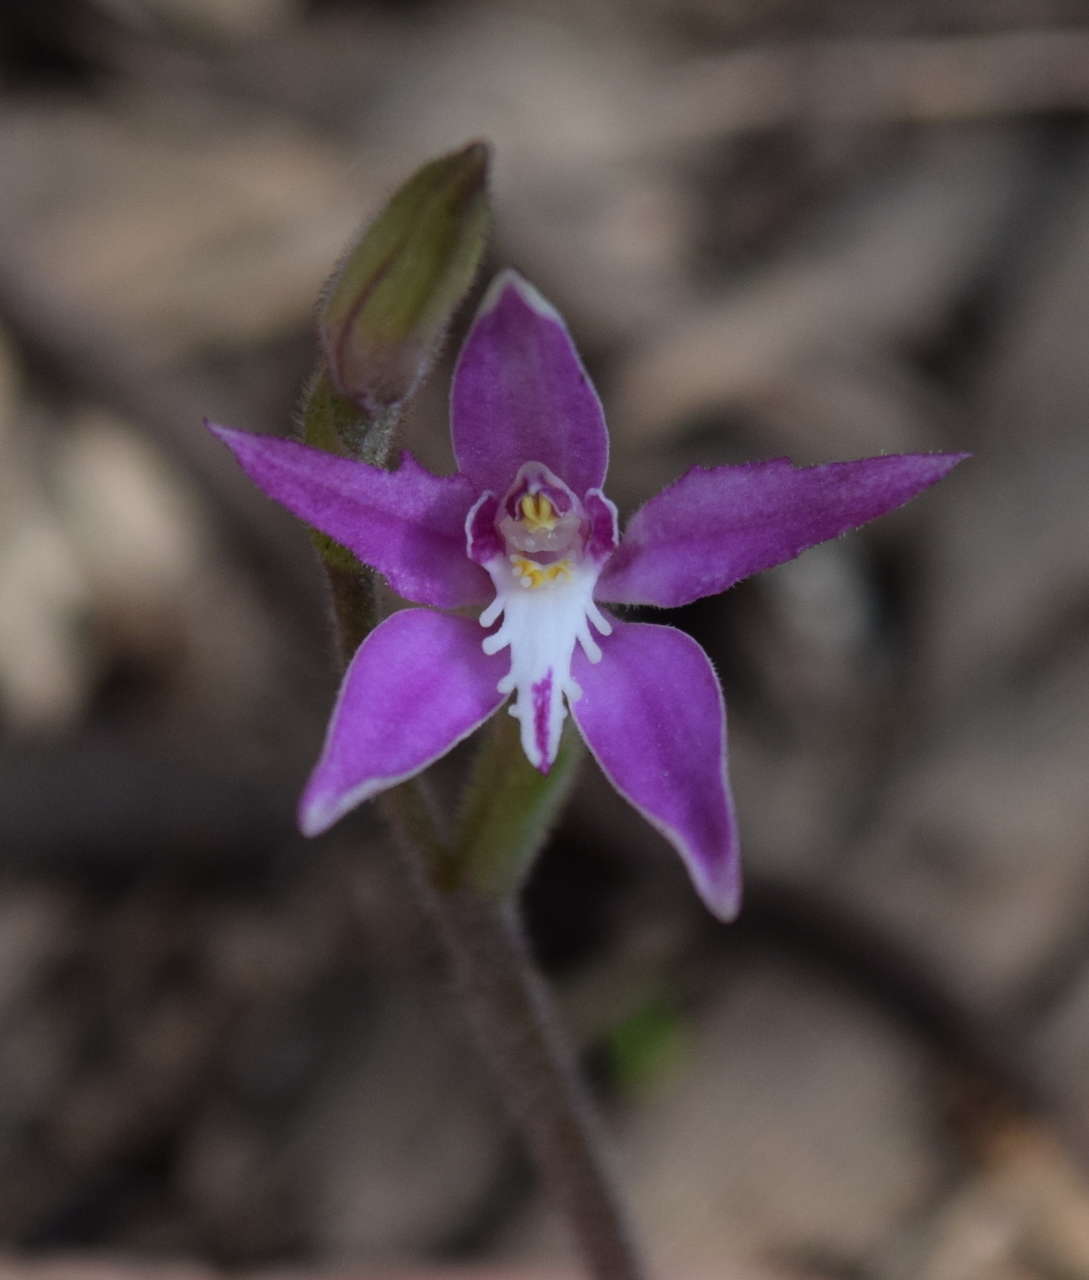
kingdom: Plantae
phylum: Tracheophyta
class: Liliopsida
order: Asparagales
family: Orchidaceae
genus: Caladenia
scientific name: Caladenia latifolia
